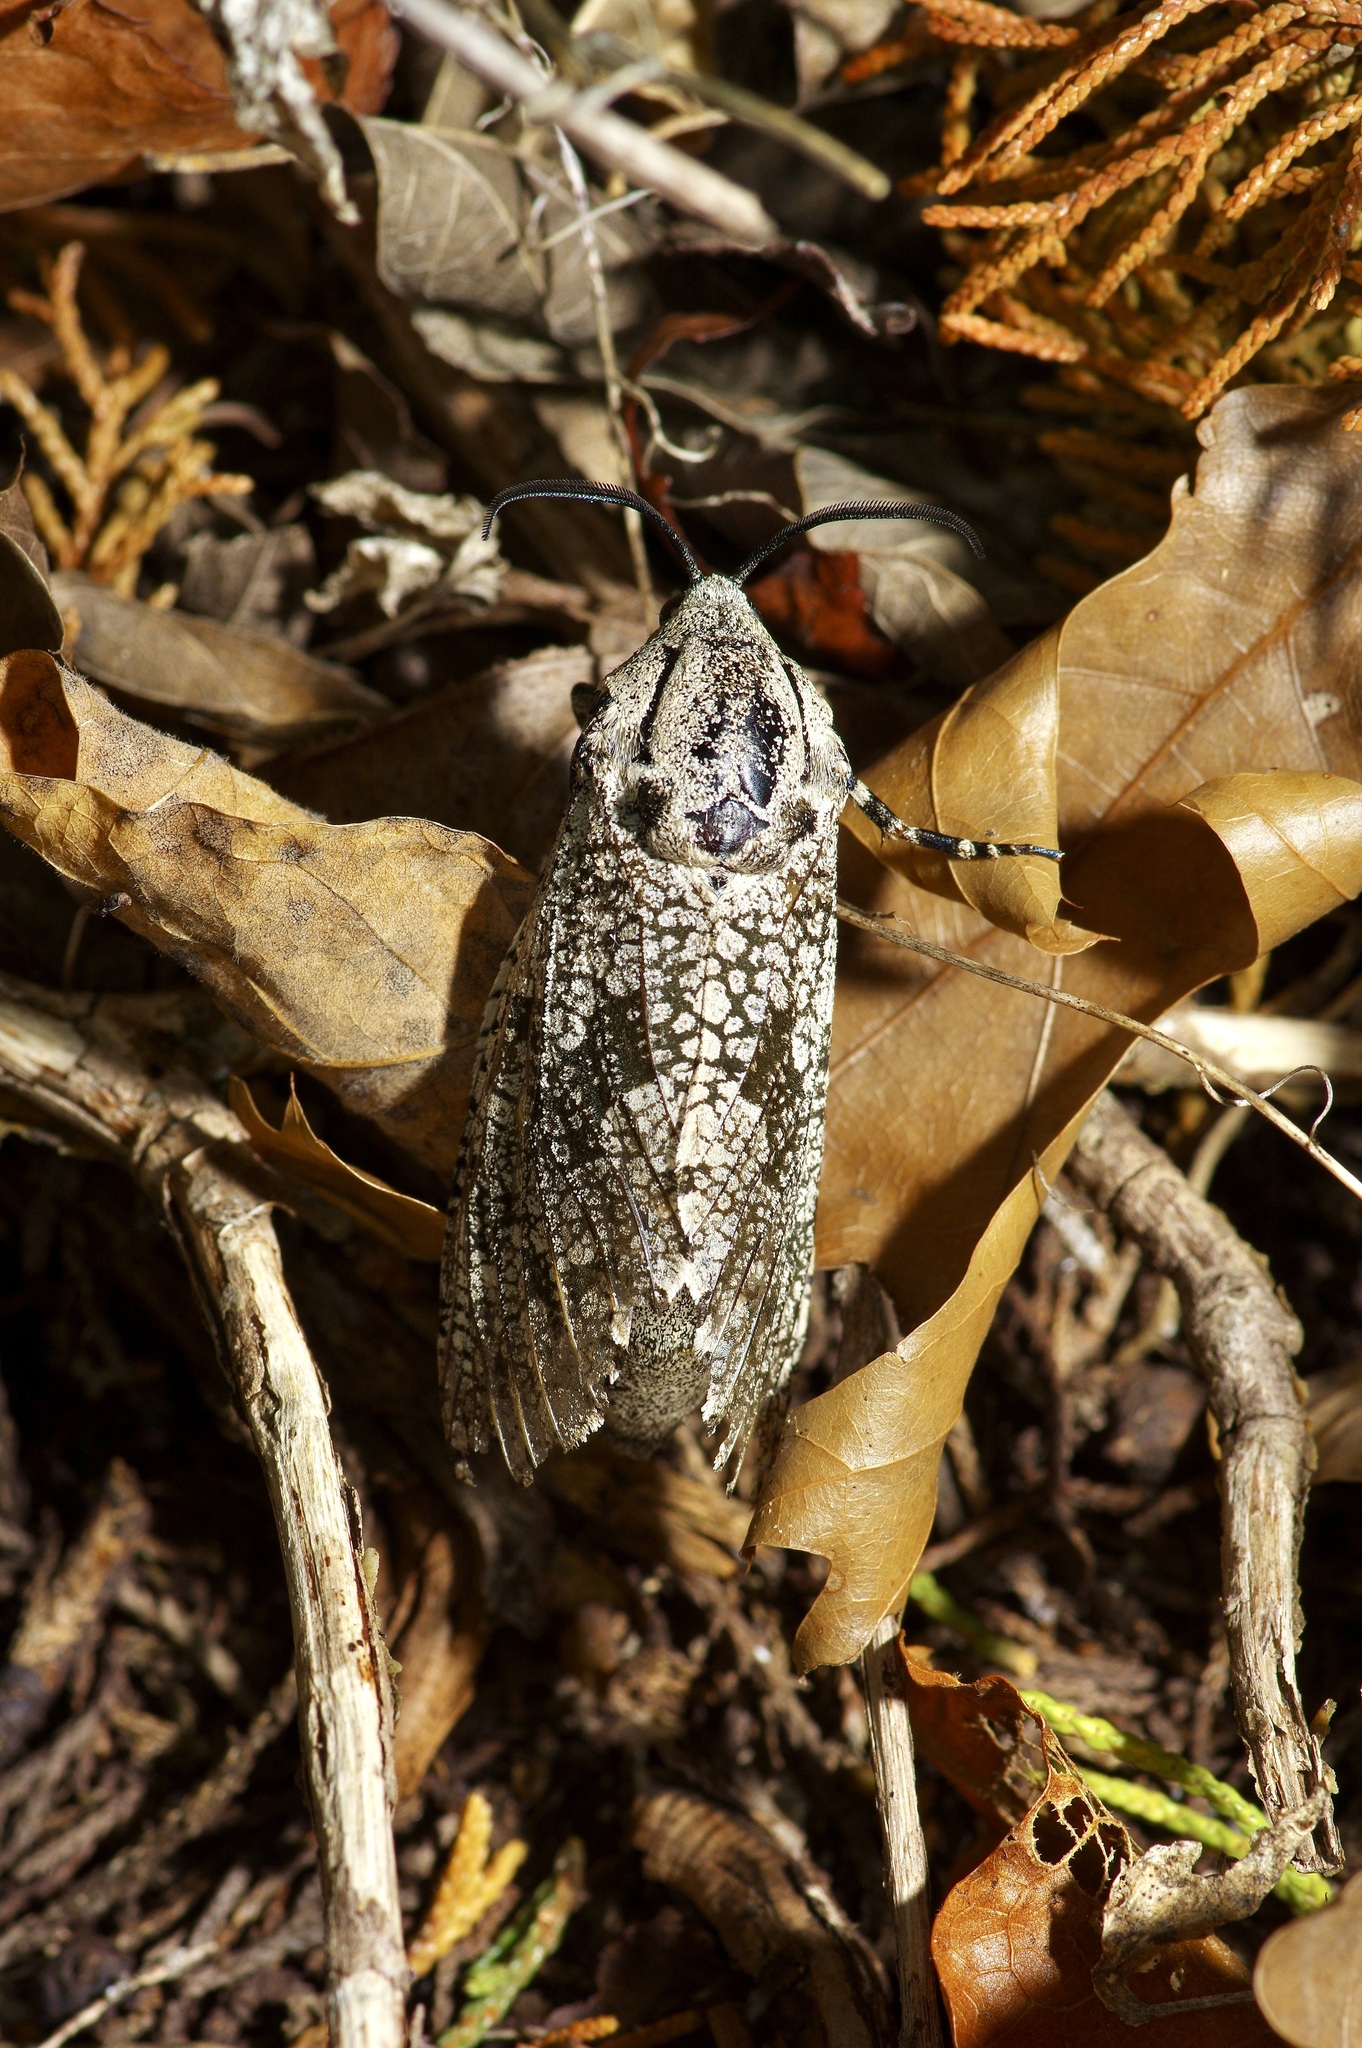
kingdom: Animalia
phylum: Arthropoda
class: Insecta
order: Lepidoptera
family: Cossidae
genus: Prionoxystus
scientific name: Prionoxystus robiniae
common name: Carpenterworm
